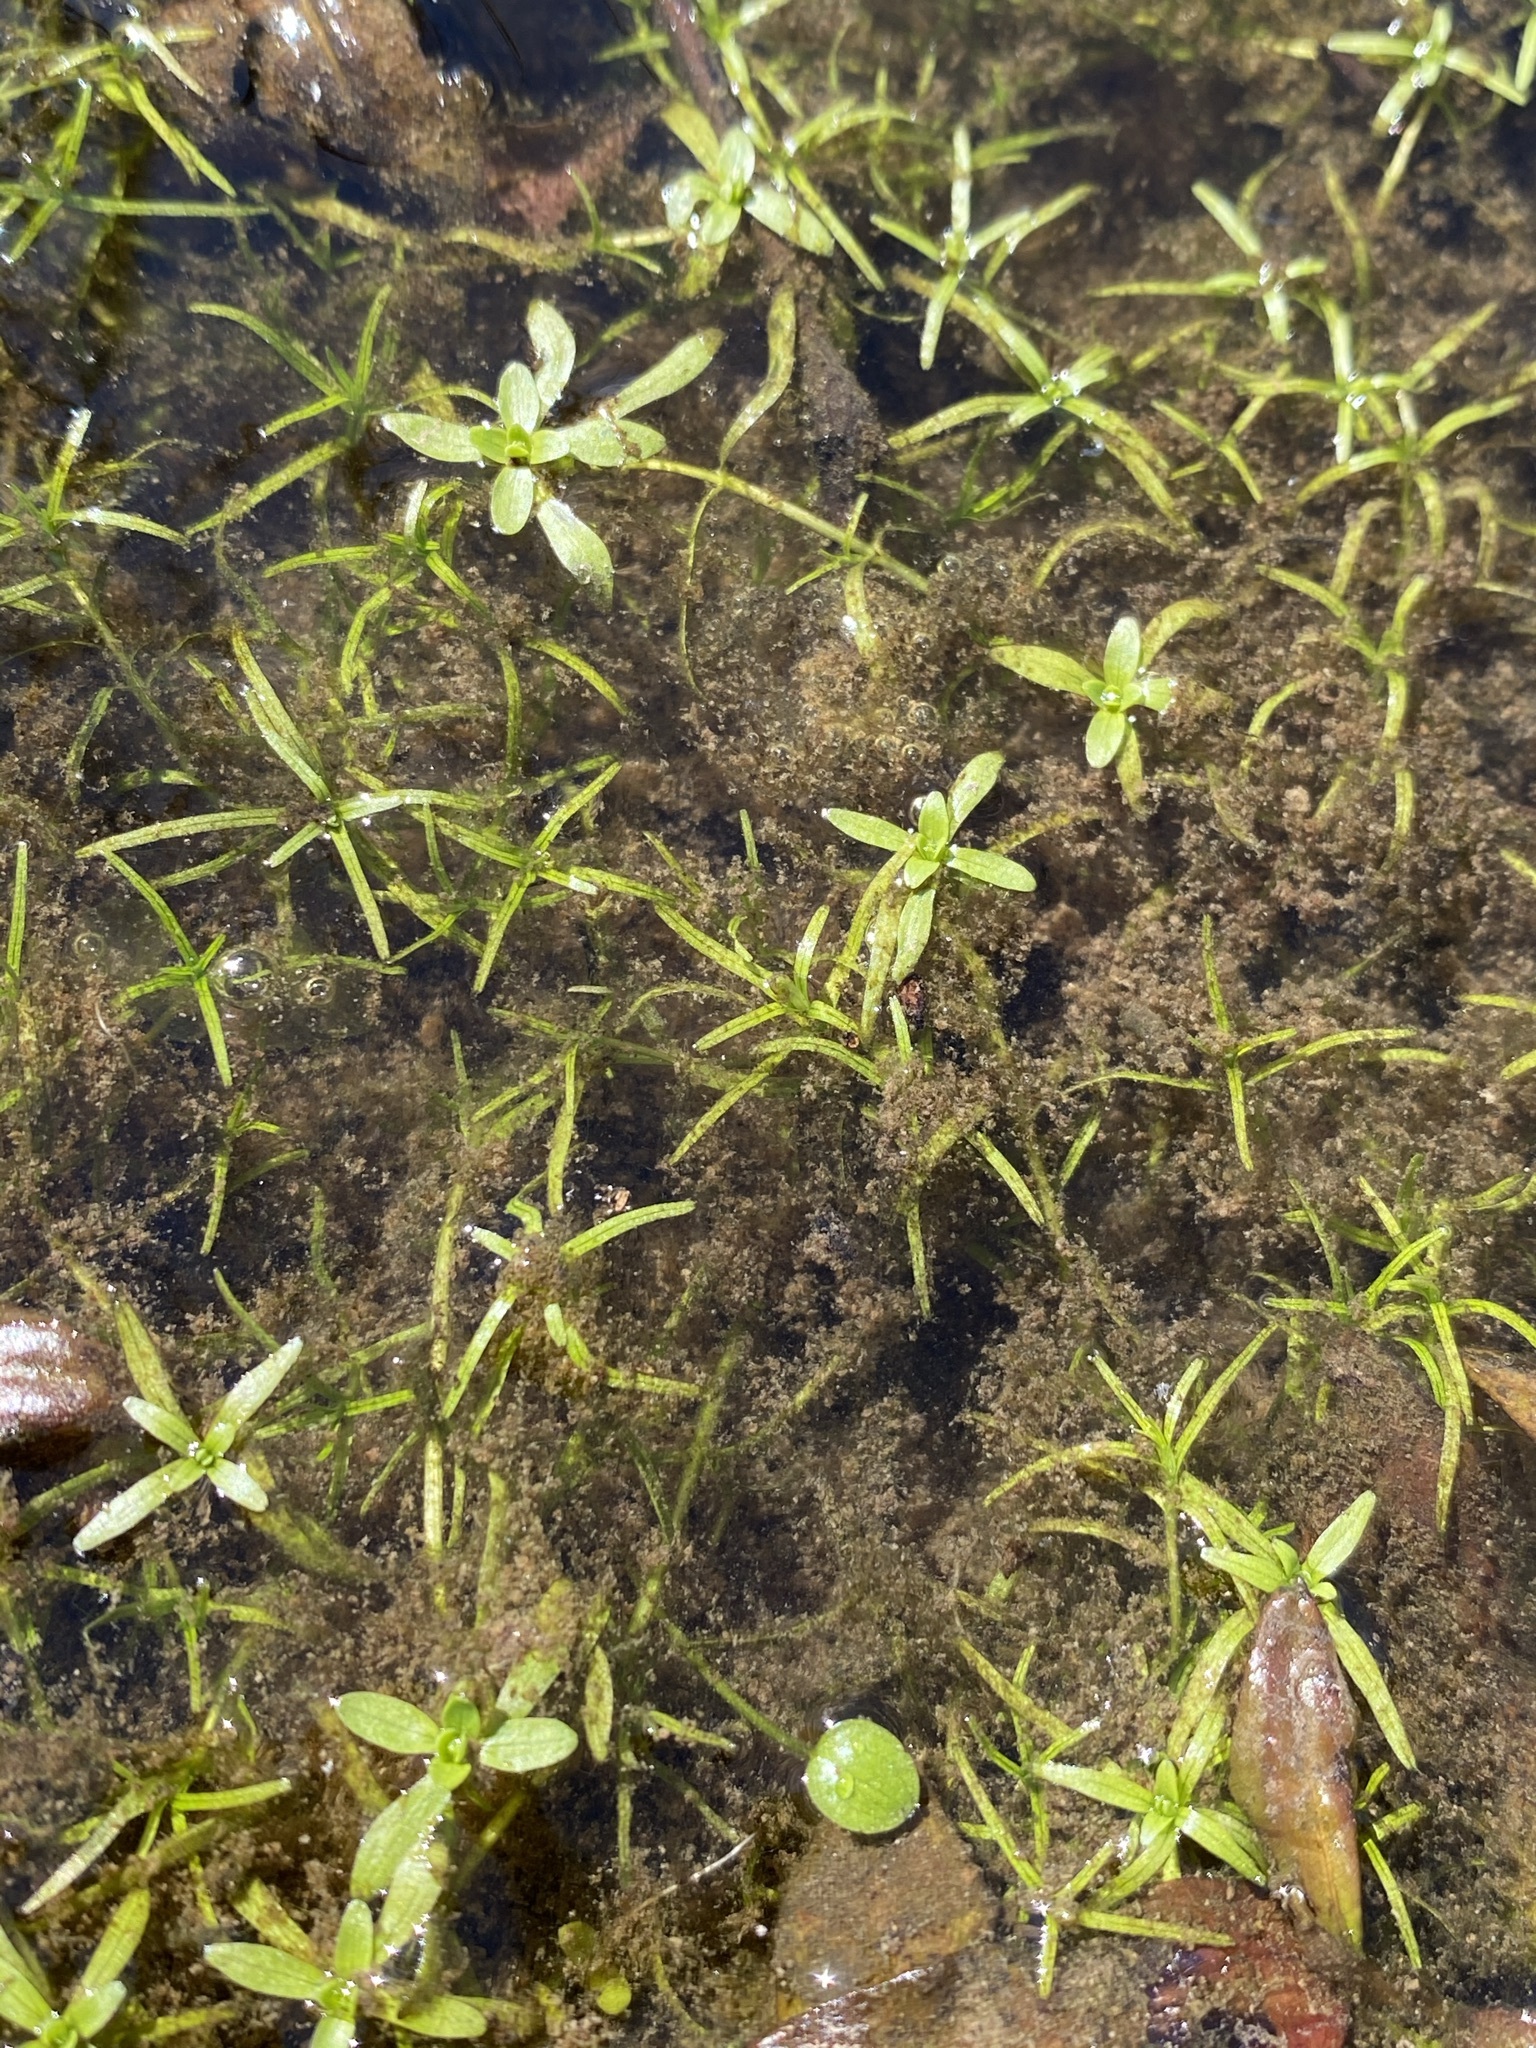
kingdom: Plantae
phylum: Tracheophyta
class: Magnoliopsida
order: Lamiales
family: Plantaginaceae
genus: Callitriche
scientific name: Callitriche heterophylla
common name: Two-headed water-starwort
